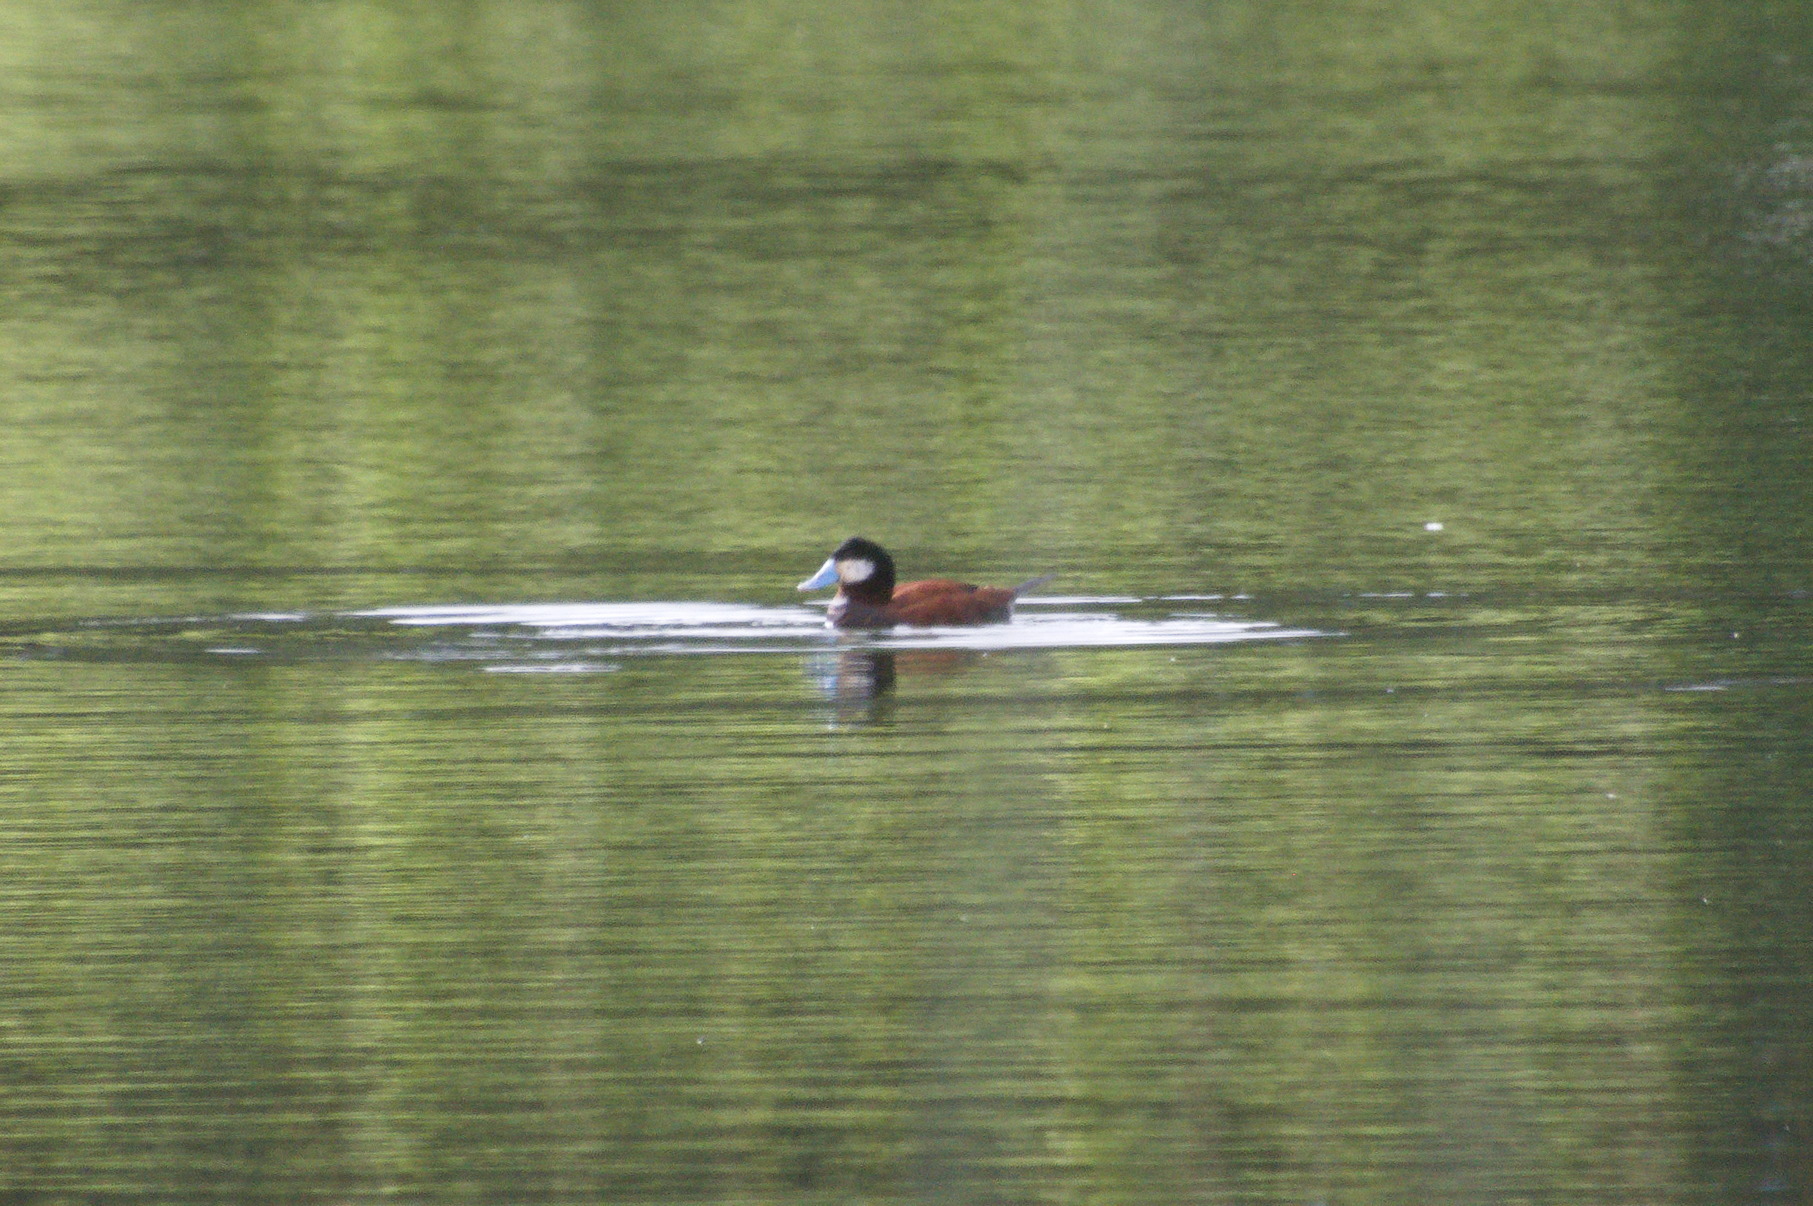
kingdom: Animalia
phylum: Chordata
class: Aves
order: Anseriformes
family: Anatidae
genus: Oxyura
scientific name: Oxyura ferruginea
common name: Andean duck
